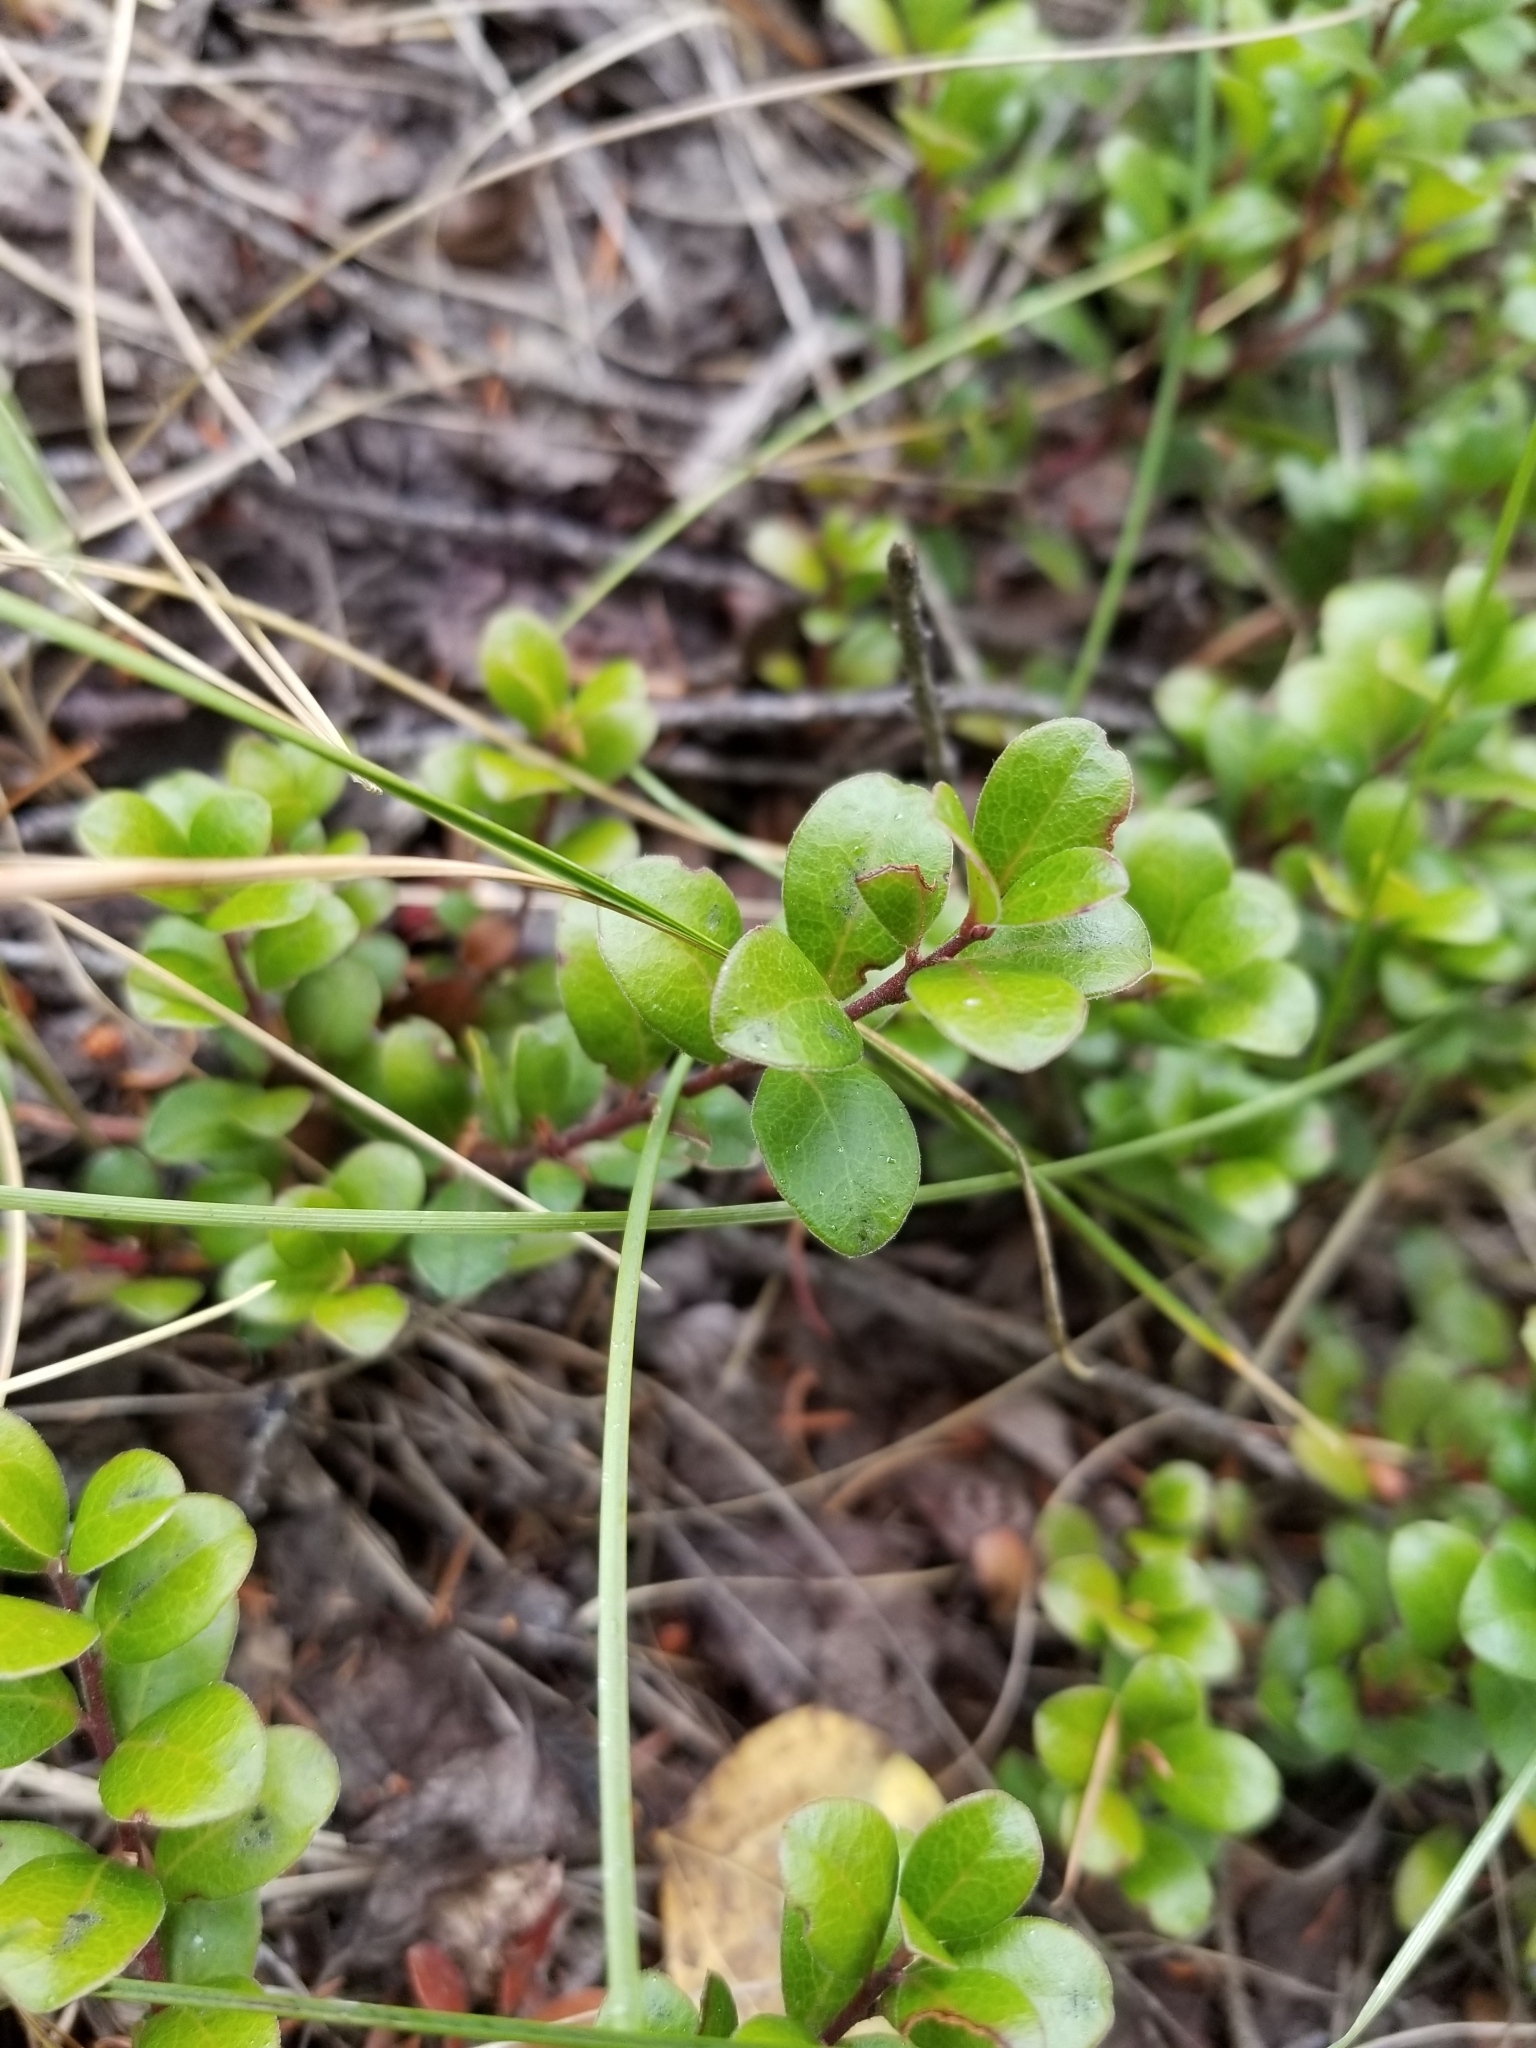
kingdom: Plantae
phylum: Tracheophyta
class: Magnoliopsida
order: Ericales
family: Ericaceae
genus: Arctostaphylos
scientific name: Arctostaphylos uva-ursi
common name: Bearberry
